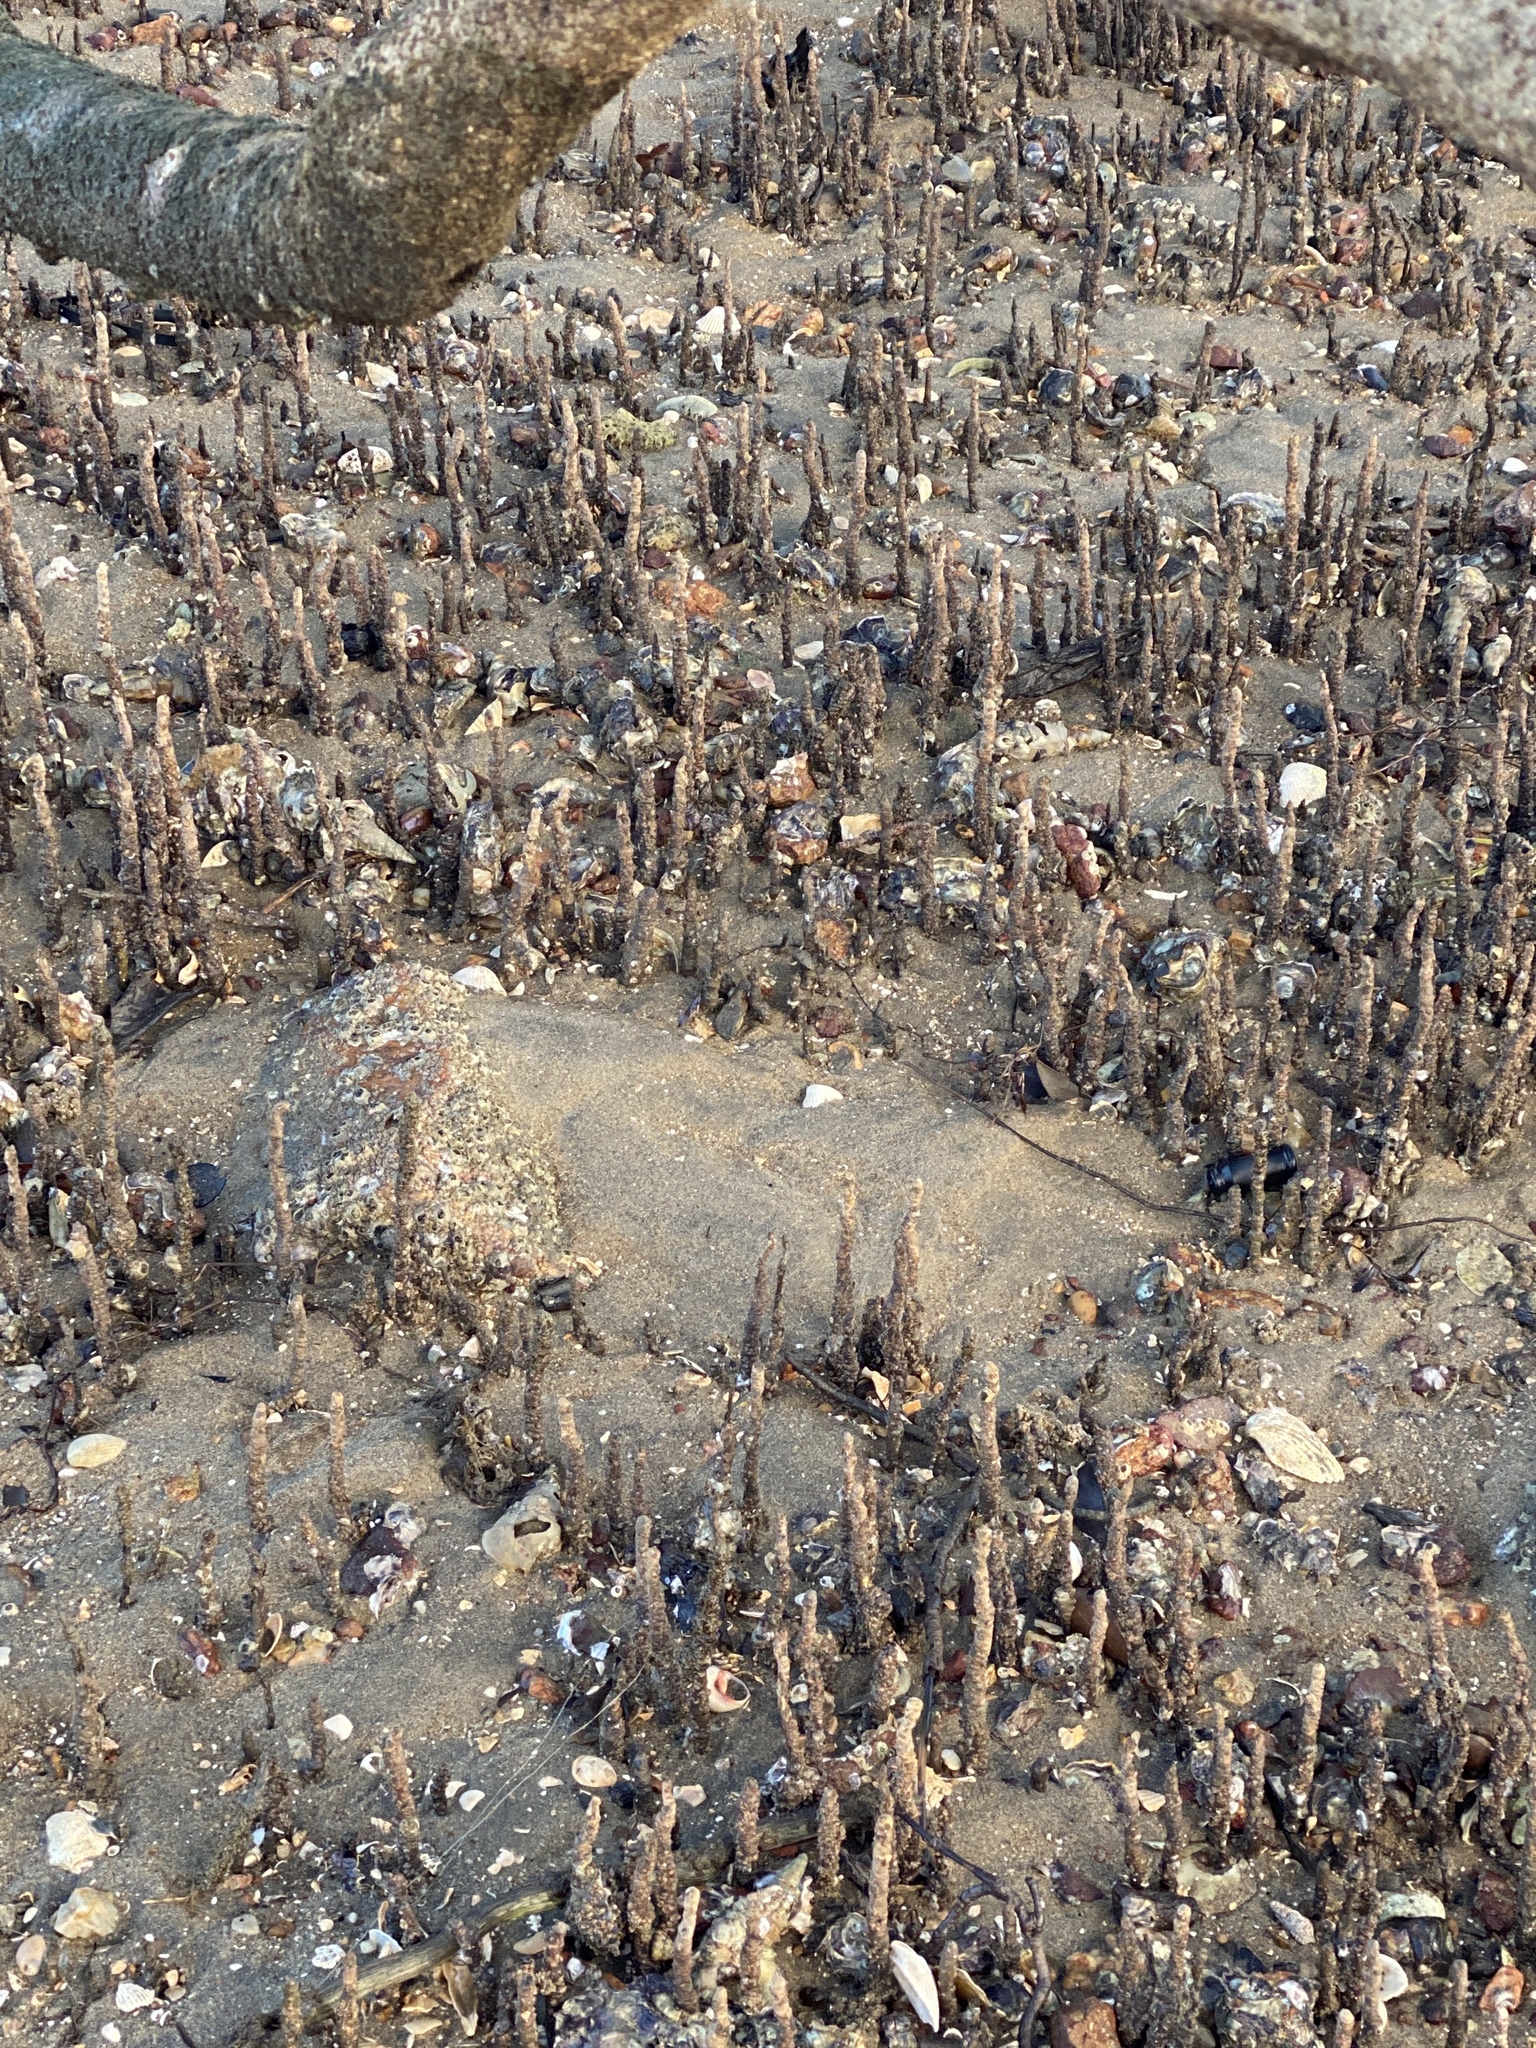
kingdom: Plantae
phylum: Tracheophyta
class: Magnoliopsida
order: Lamiales
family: Acanthaceae
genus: Avicennia
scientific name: Avicennia marina
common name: Gray mangrove
